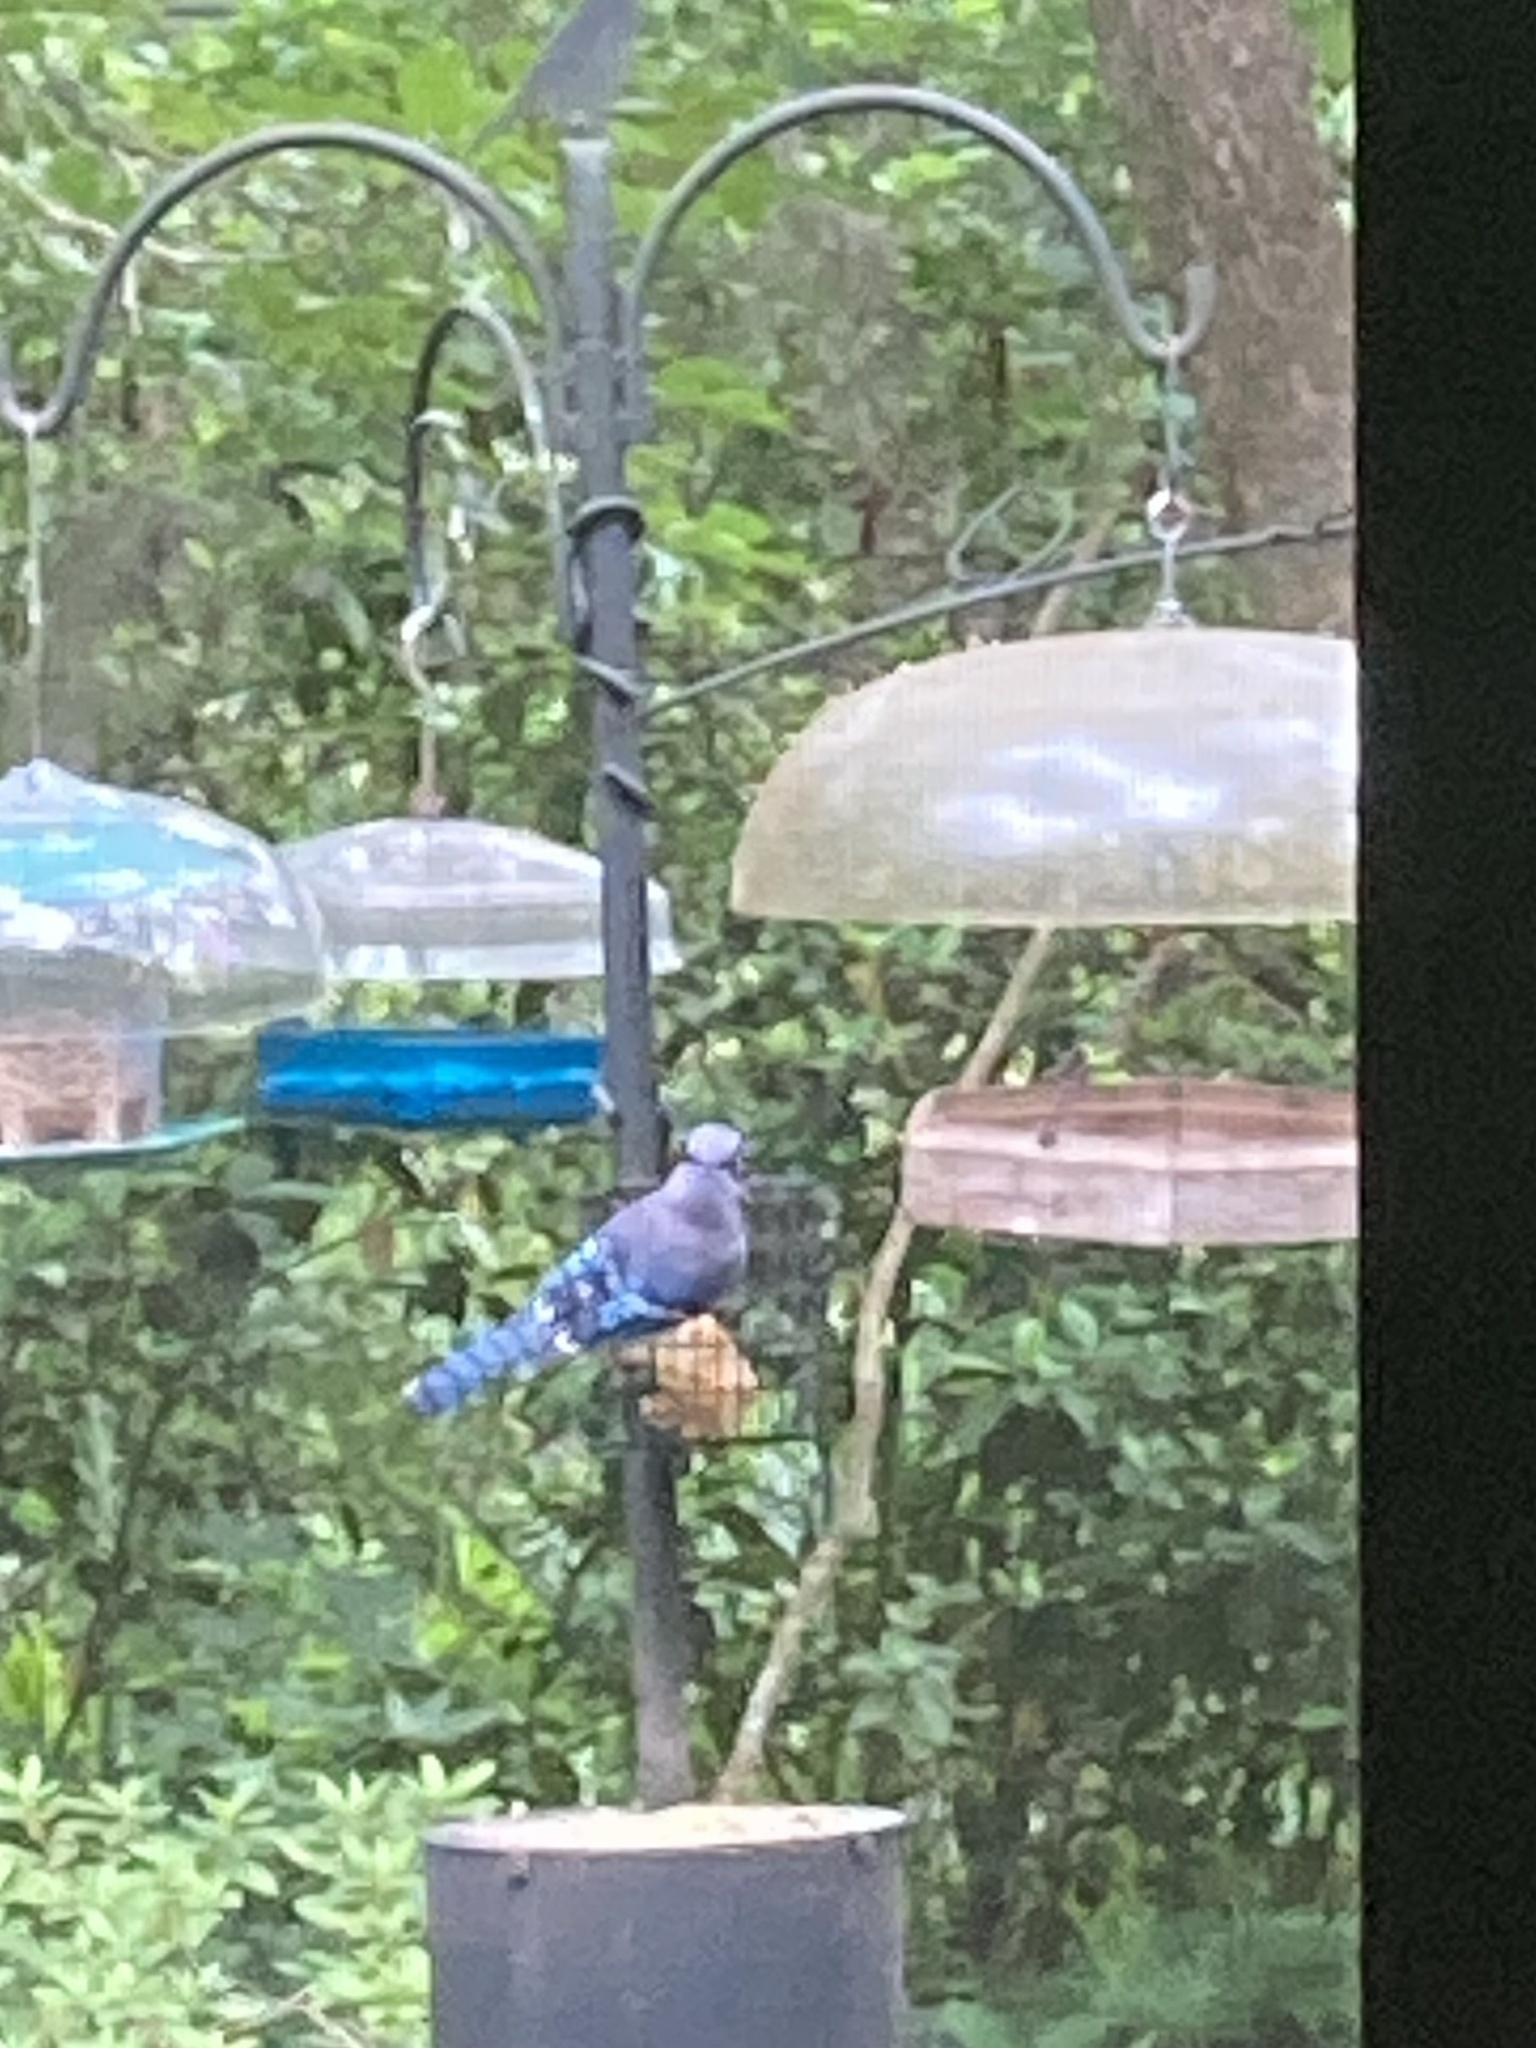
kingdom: Animalia
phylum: Chordata
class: Aves
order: Passeriformes
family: Corvidae
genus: Cyanocitta
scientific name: Cyanocitta cristata
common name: Blue jay
